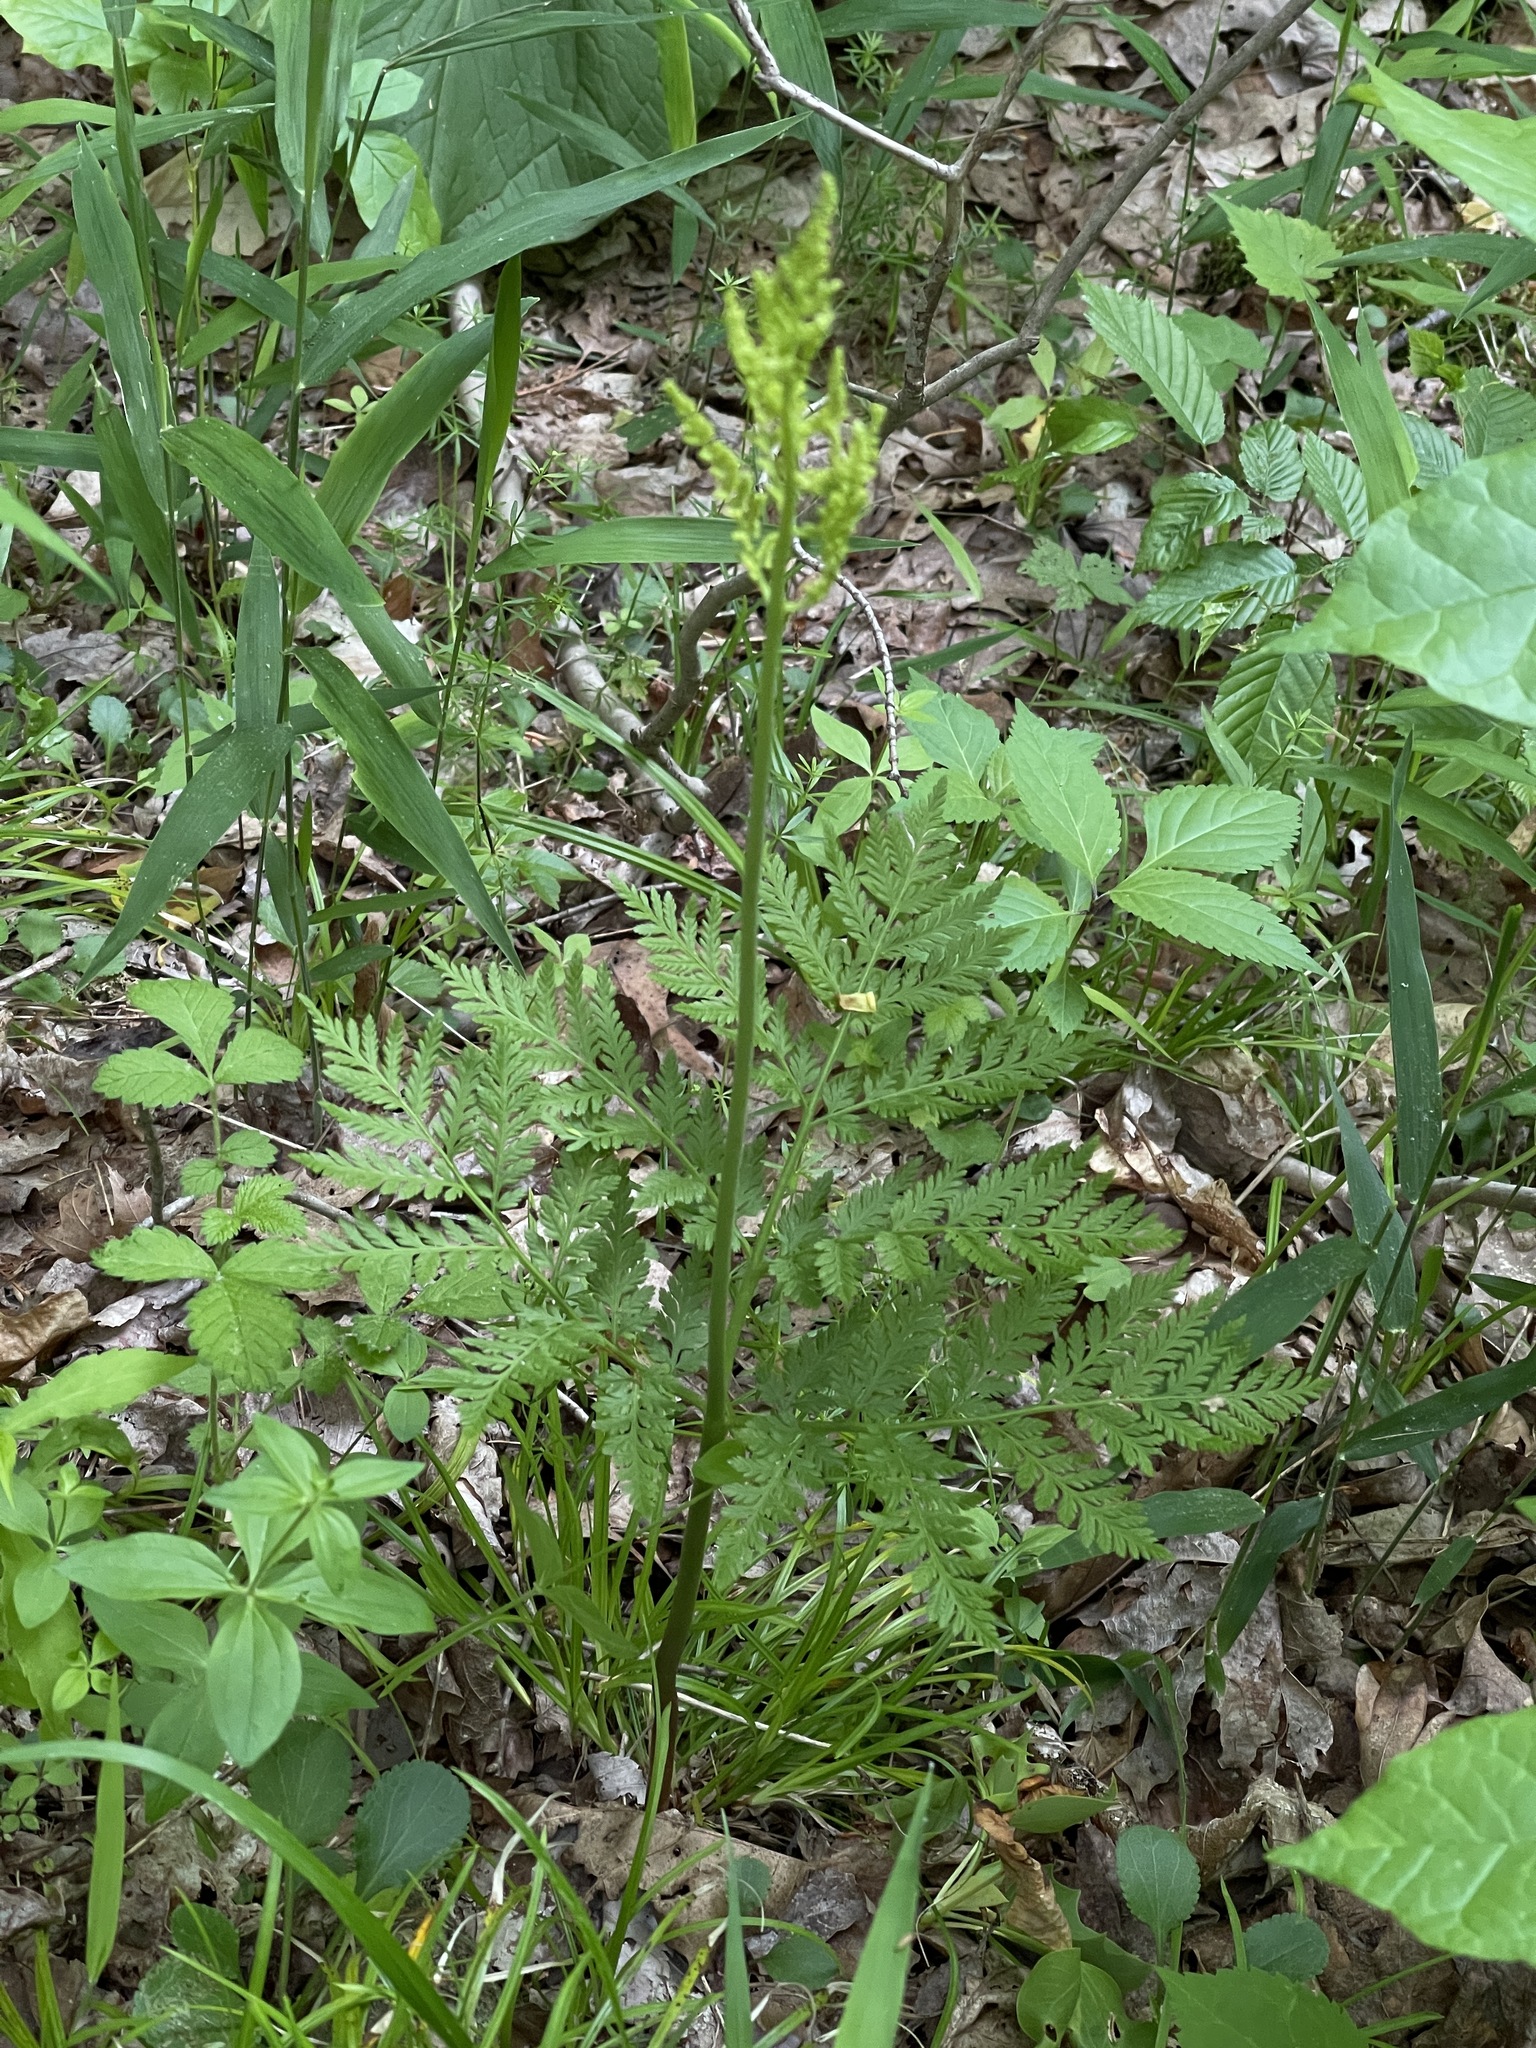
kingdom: Plantae
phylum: Tracheophyta
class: Polypodiopsida
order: Ophioglossales
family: Ophioglossaceae
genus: Botrypus
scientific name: Botrypus virginianus
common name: Common grapefern
